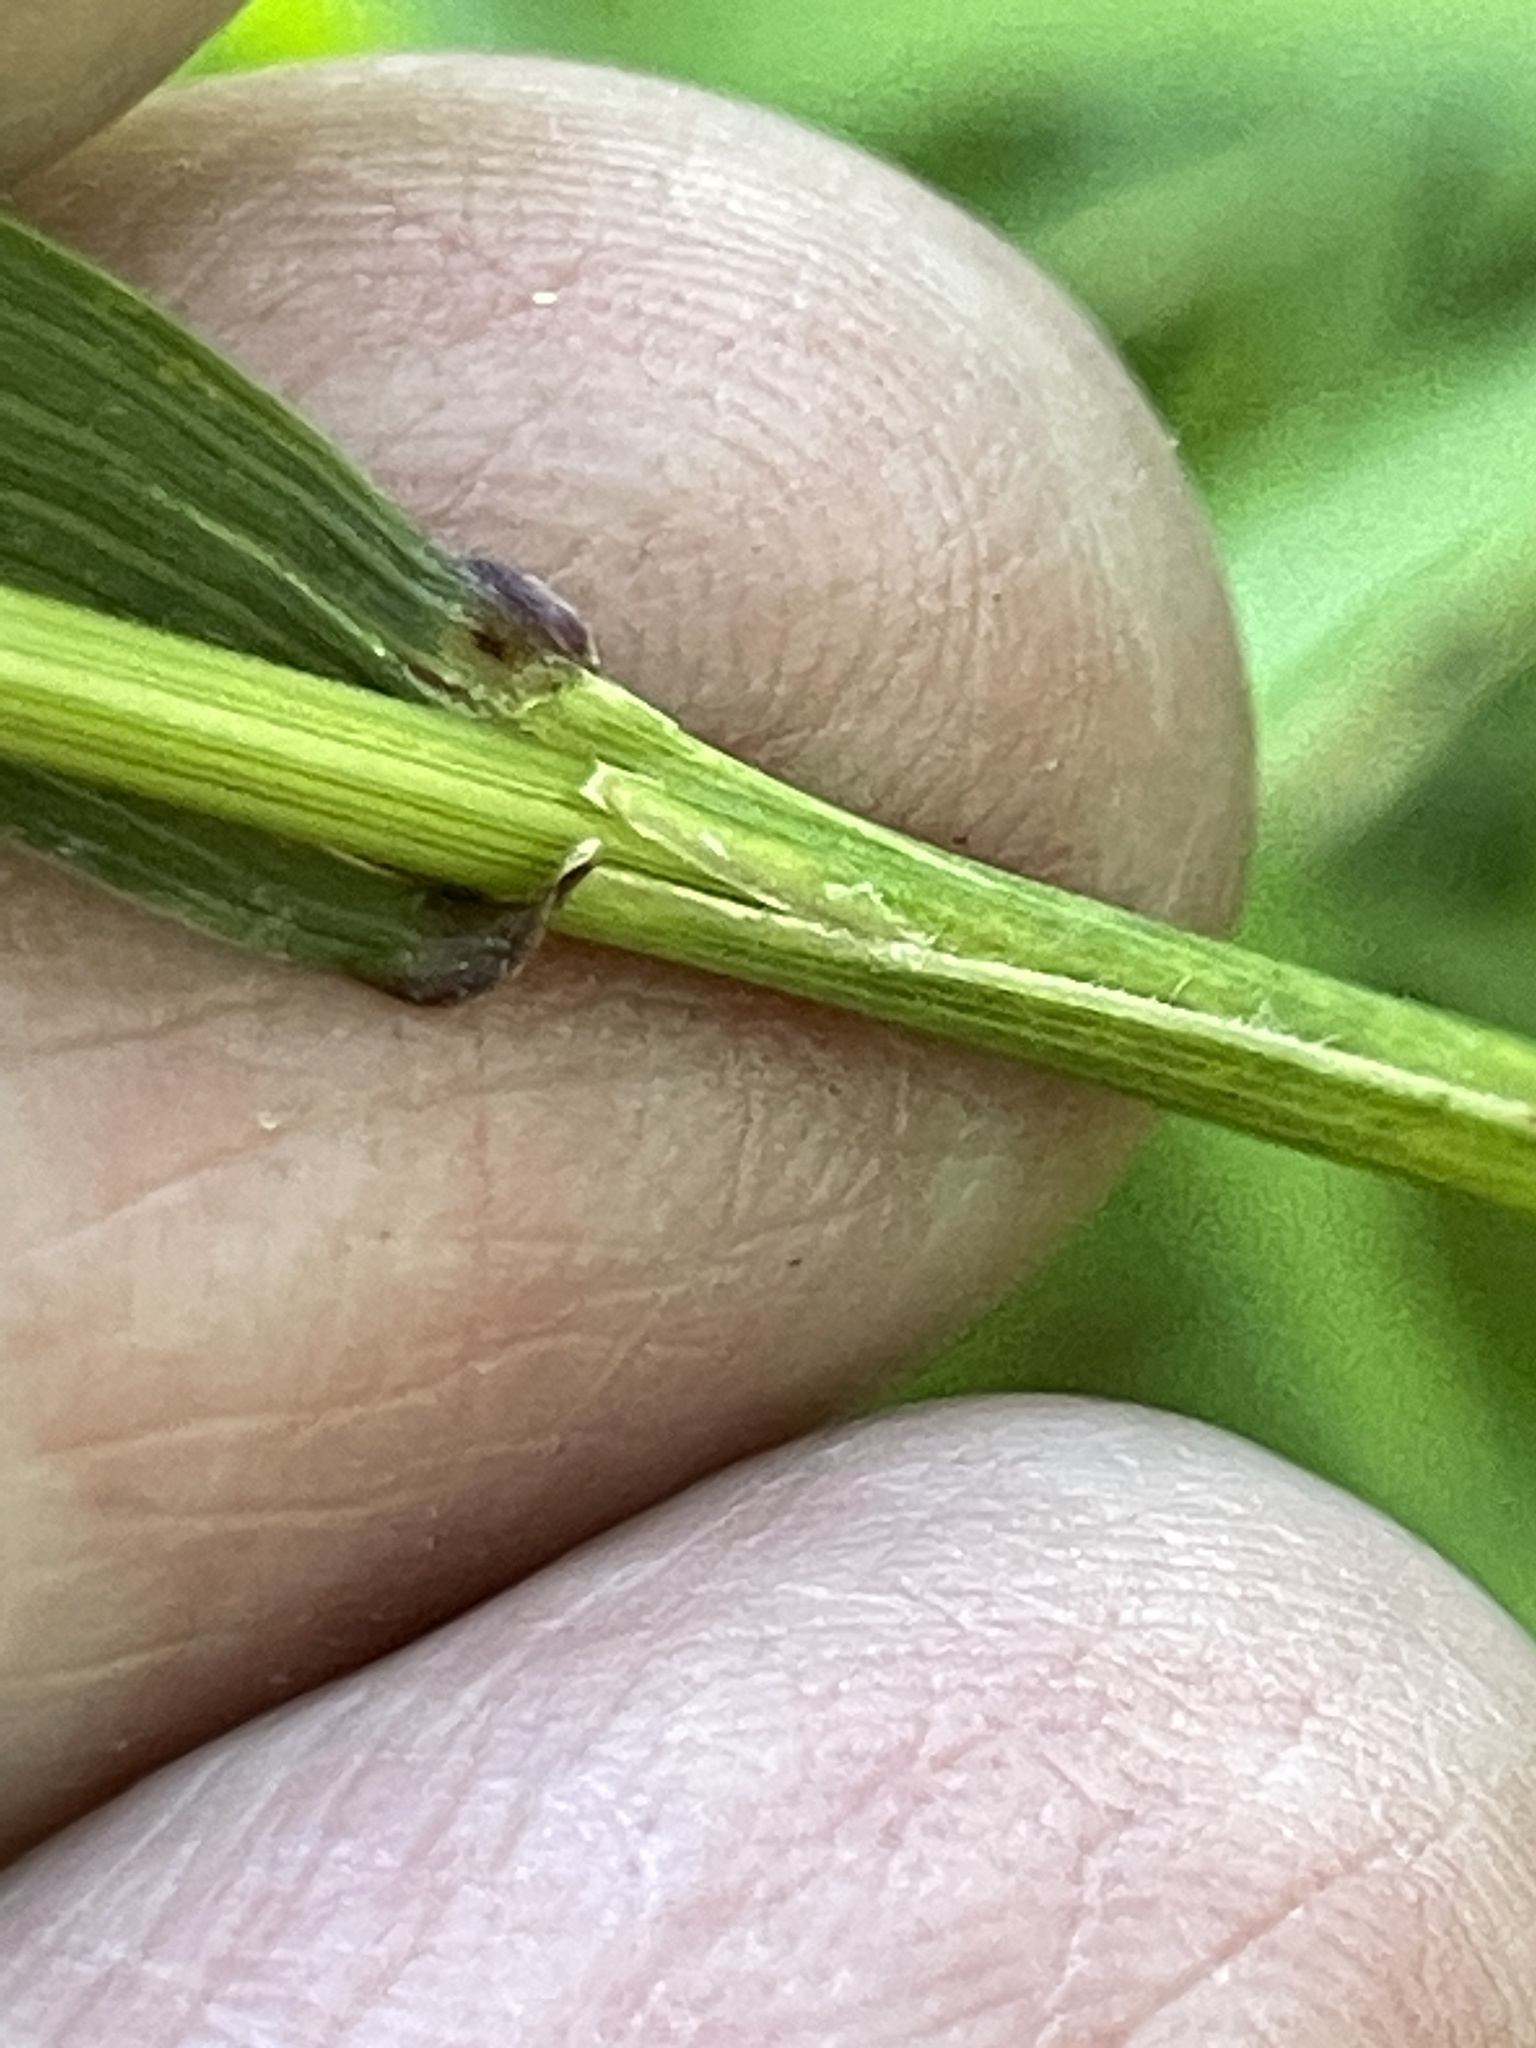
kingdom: Plantae
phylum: Tracheophyta
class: Liliopsida
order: Poales
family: Poaceae
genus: Elymus
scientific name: Elymus hystrix
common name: Bottlebrush grass
